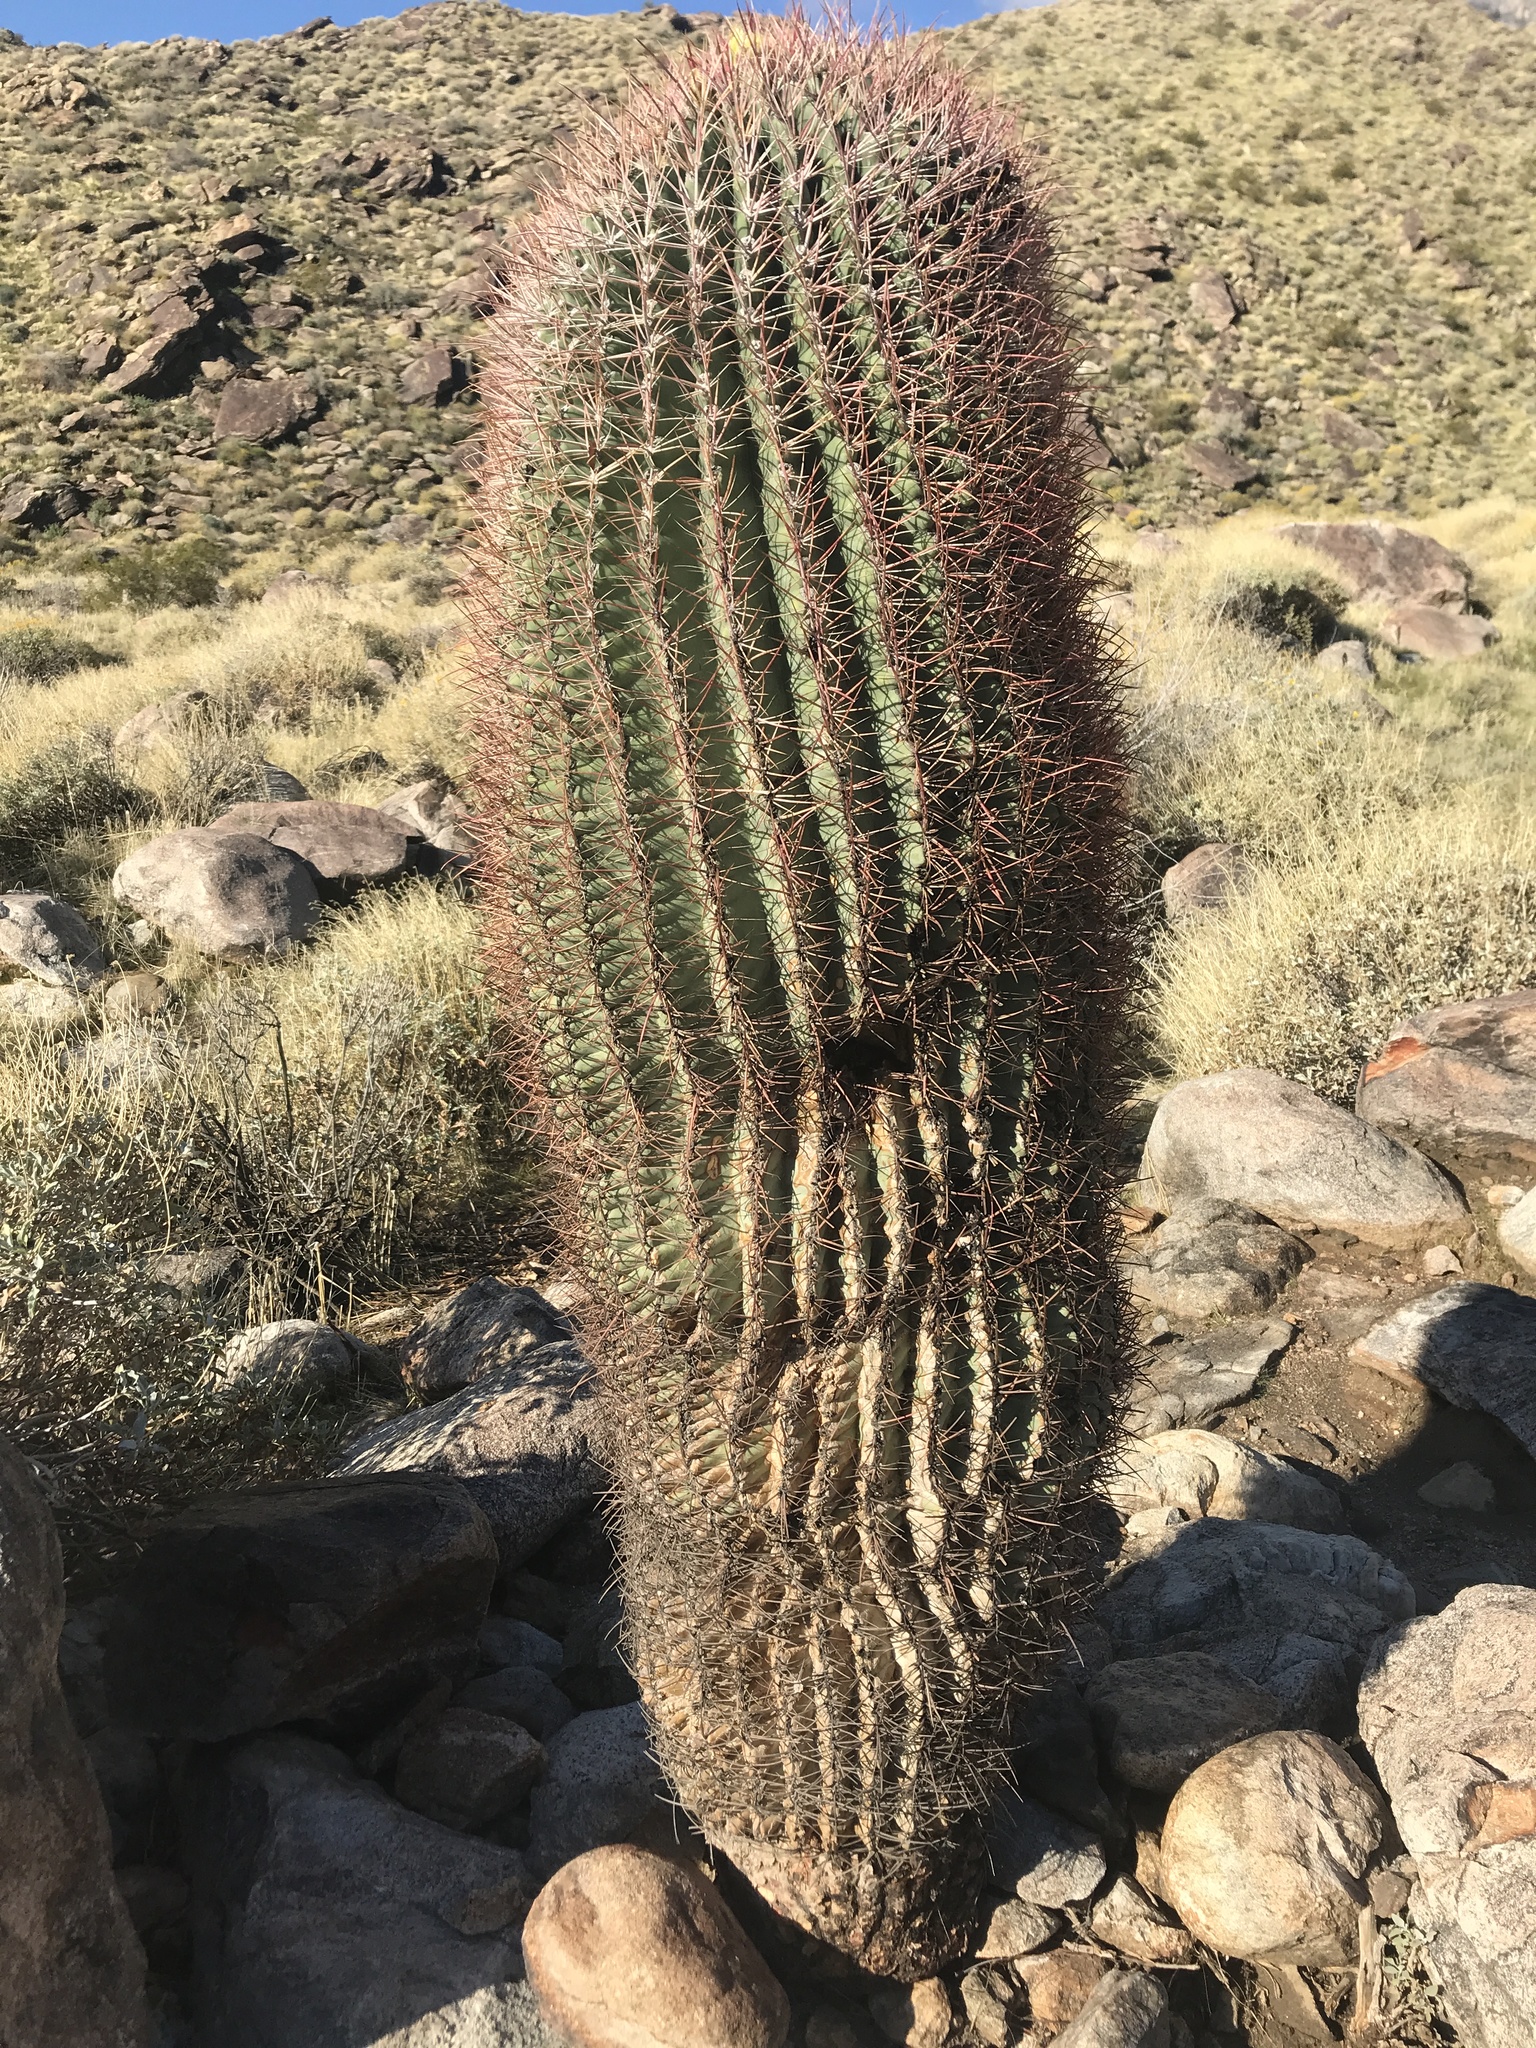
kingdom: Plantae
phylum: Tracheophyta
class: Magnoliopsida
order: Caryophyllales
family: Cactaceae
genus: Ferocactus
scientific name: Ferocactus cylindraceus
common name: California barrel cactus
